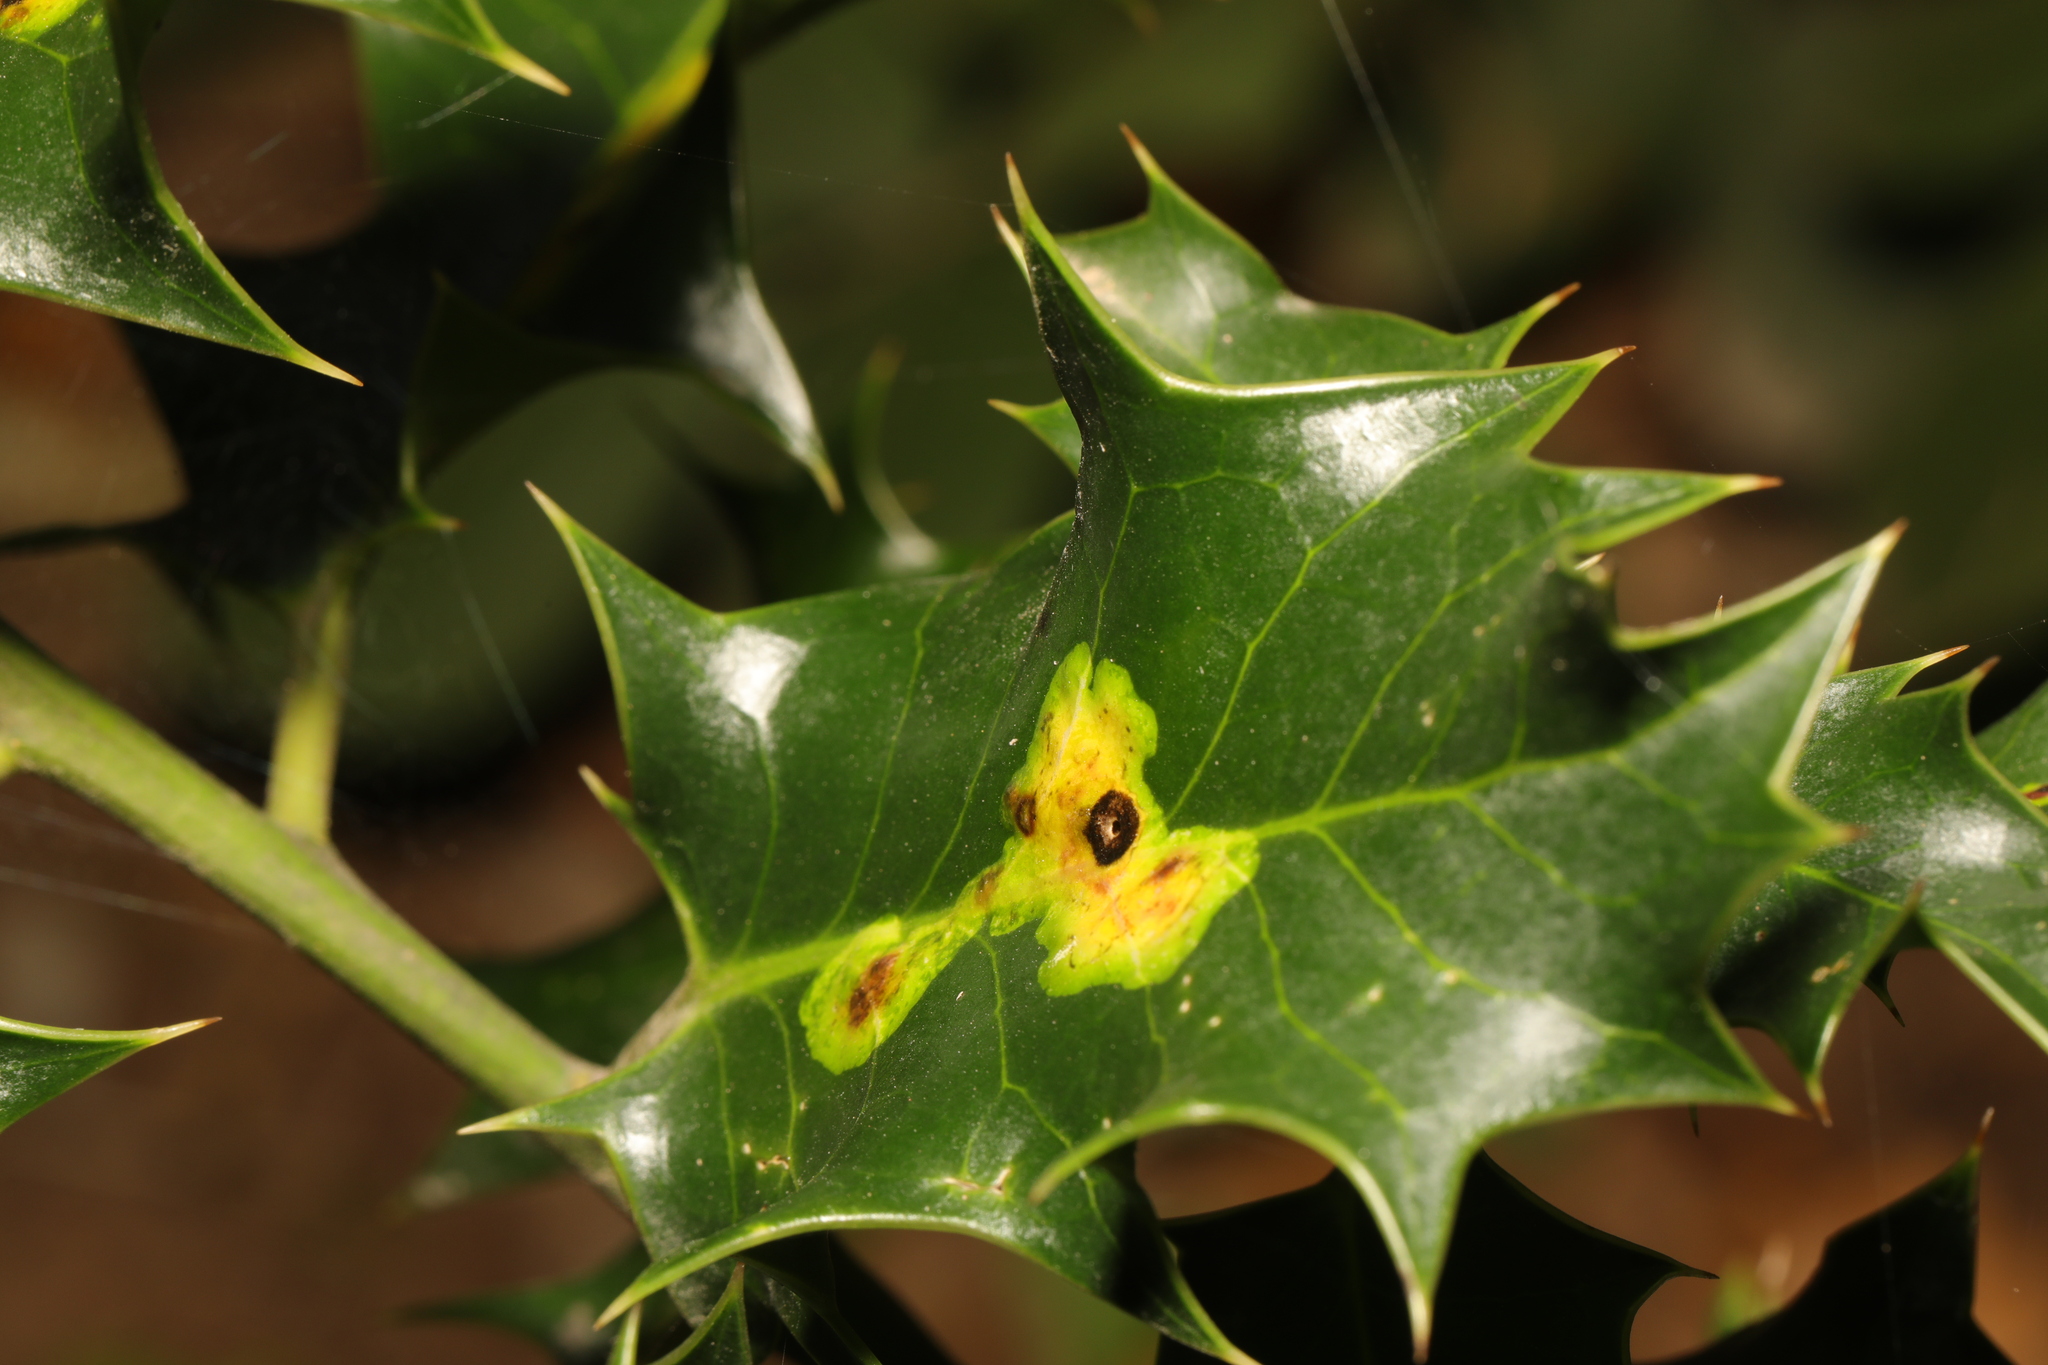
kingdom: Animalia
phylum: Arthropoda
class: Insecta
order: Diptera
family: Agromyzidae
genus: Phytomyza
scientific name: Phytomyza ilicis
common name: Holly leafminer
